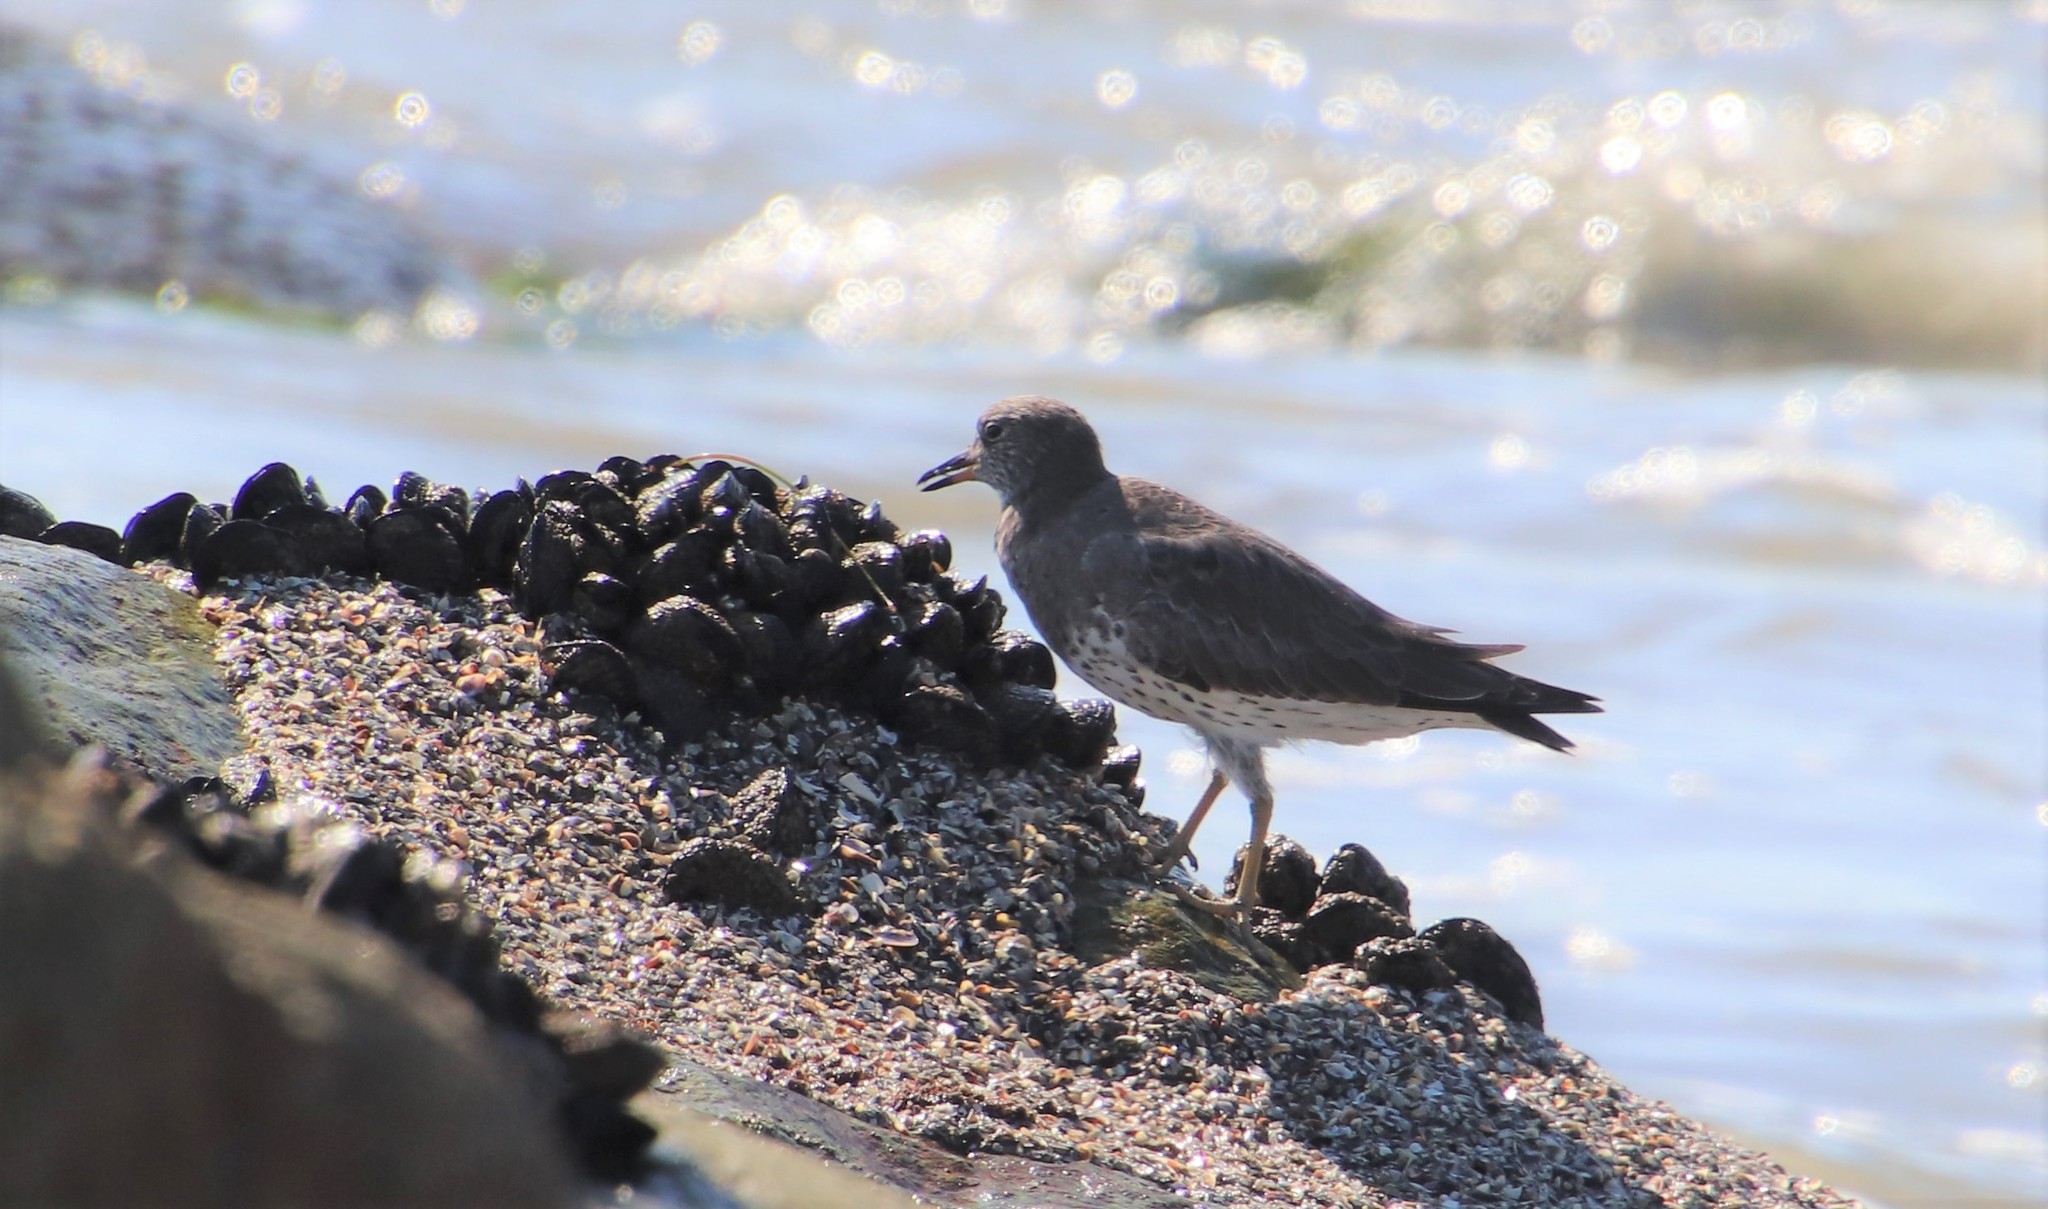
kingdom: Animalia
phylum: Chordata
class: Aves
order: Charadriiformes
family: Scolopacidae
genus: Calidris
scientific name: Calidris virgata
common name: Surfbird
